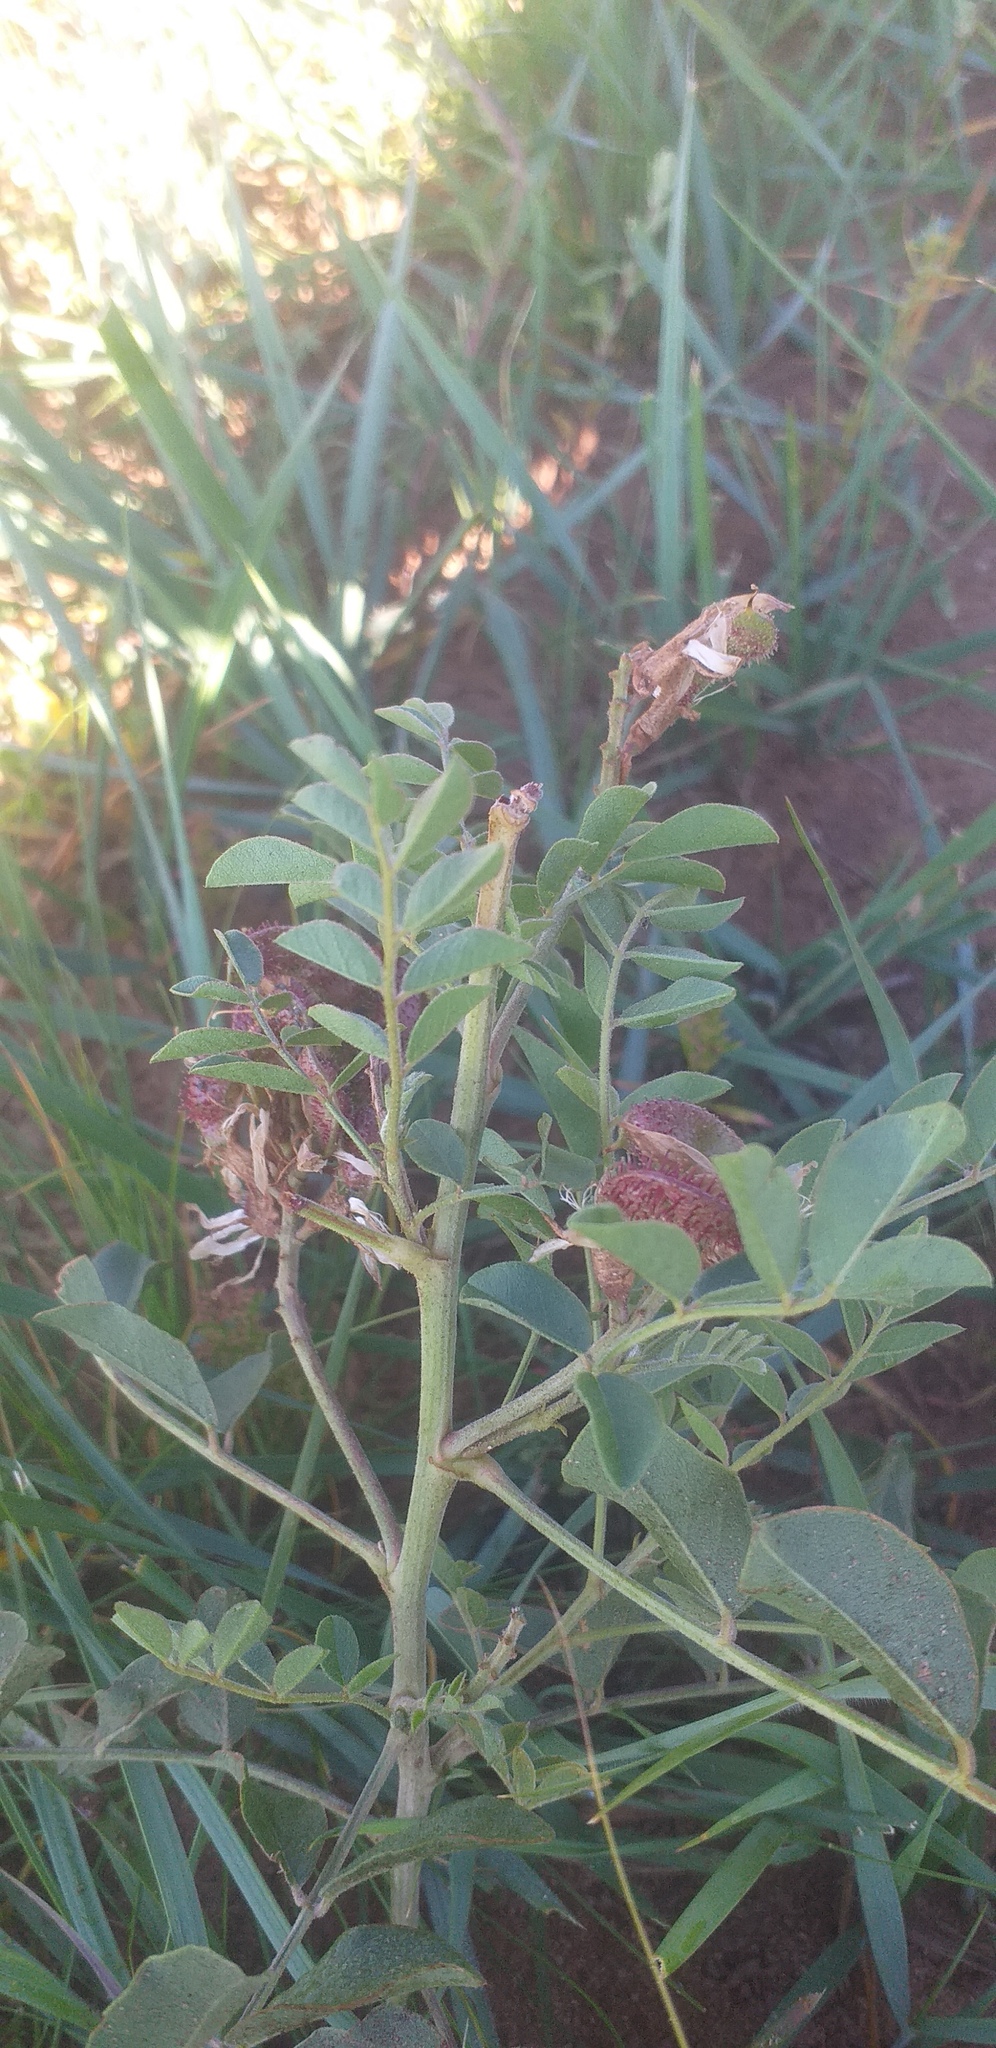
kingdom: Plantae
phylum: Tracheophyta
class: Magnoliopsida
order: Fabales
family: Fabaceae
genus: Glycyrrhiza
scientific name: Glycyrrhiza uralensis
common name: Chinese licorice
